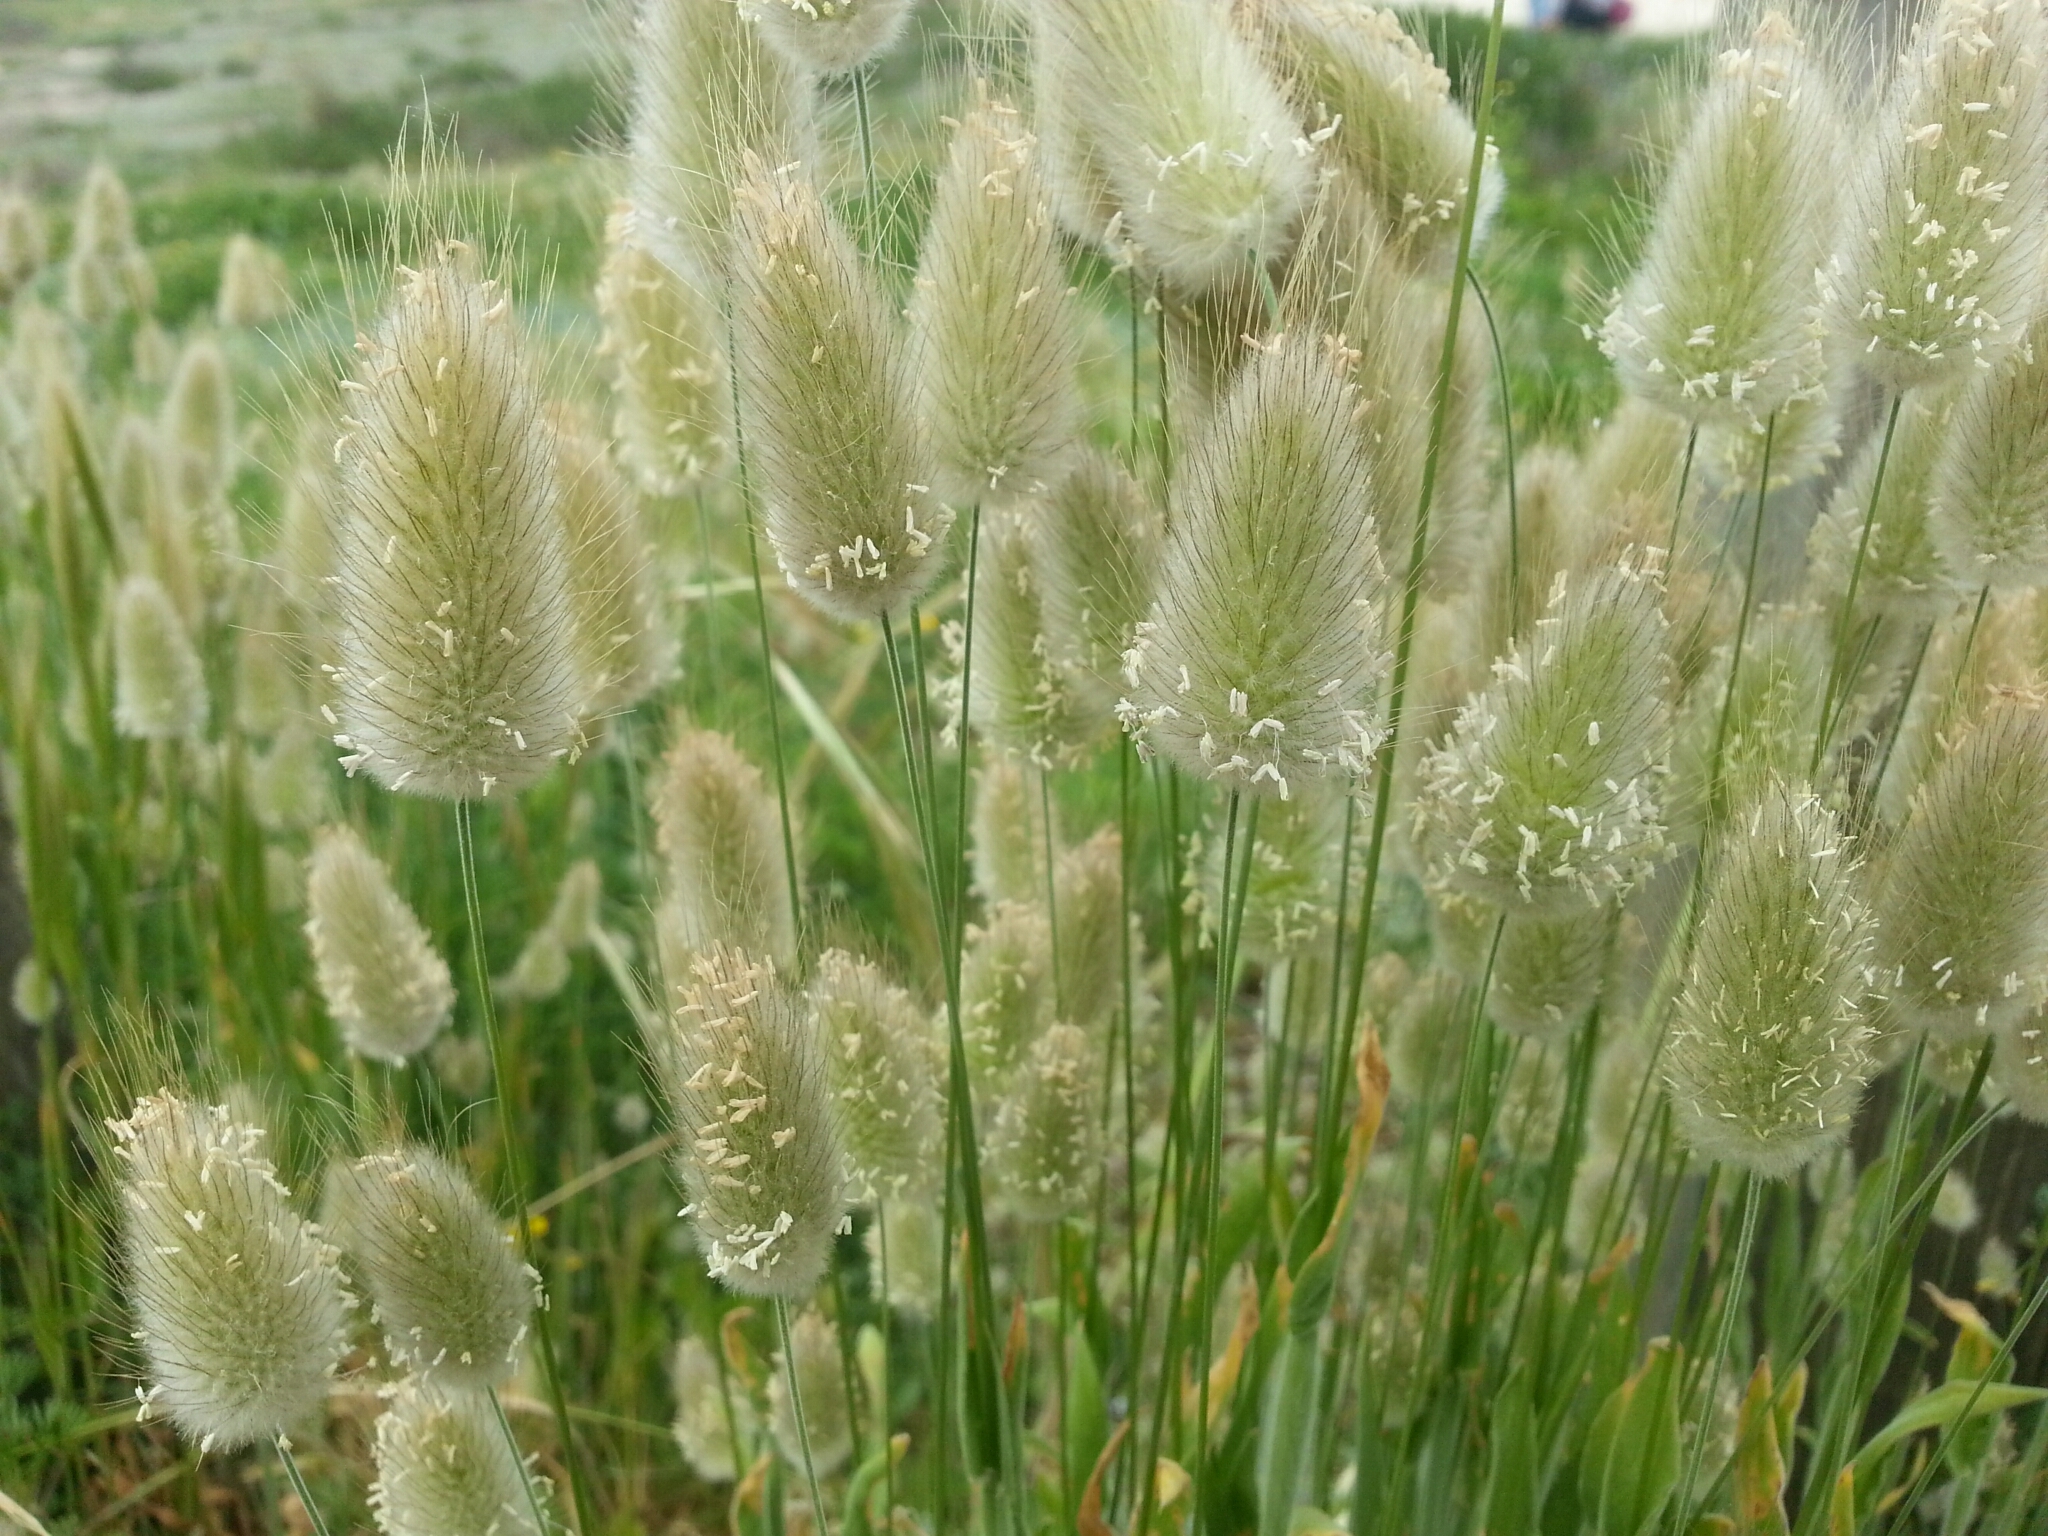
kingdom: Plantae
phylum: Tracheophyta
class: Liliopsida
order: Poales
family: Poaceae
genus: Lagurus
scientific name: Lagurus ovatus
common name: Hare's-tail
